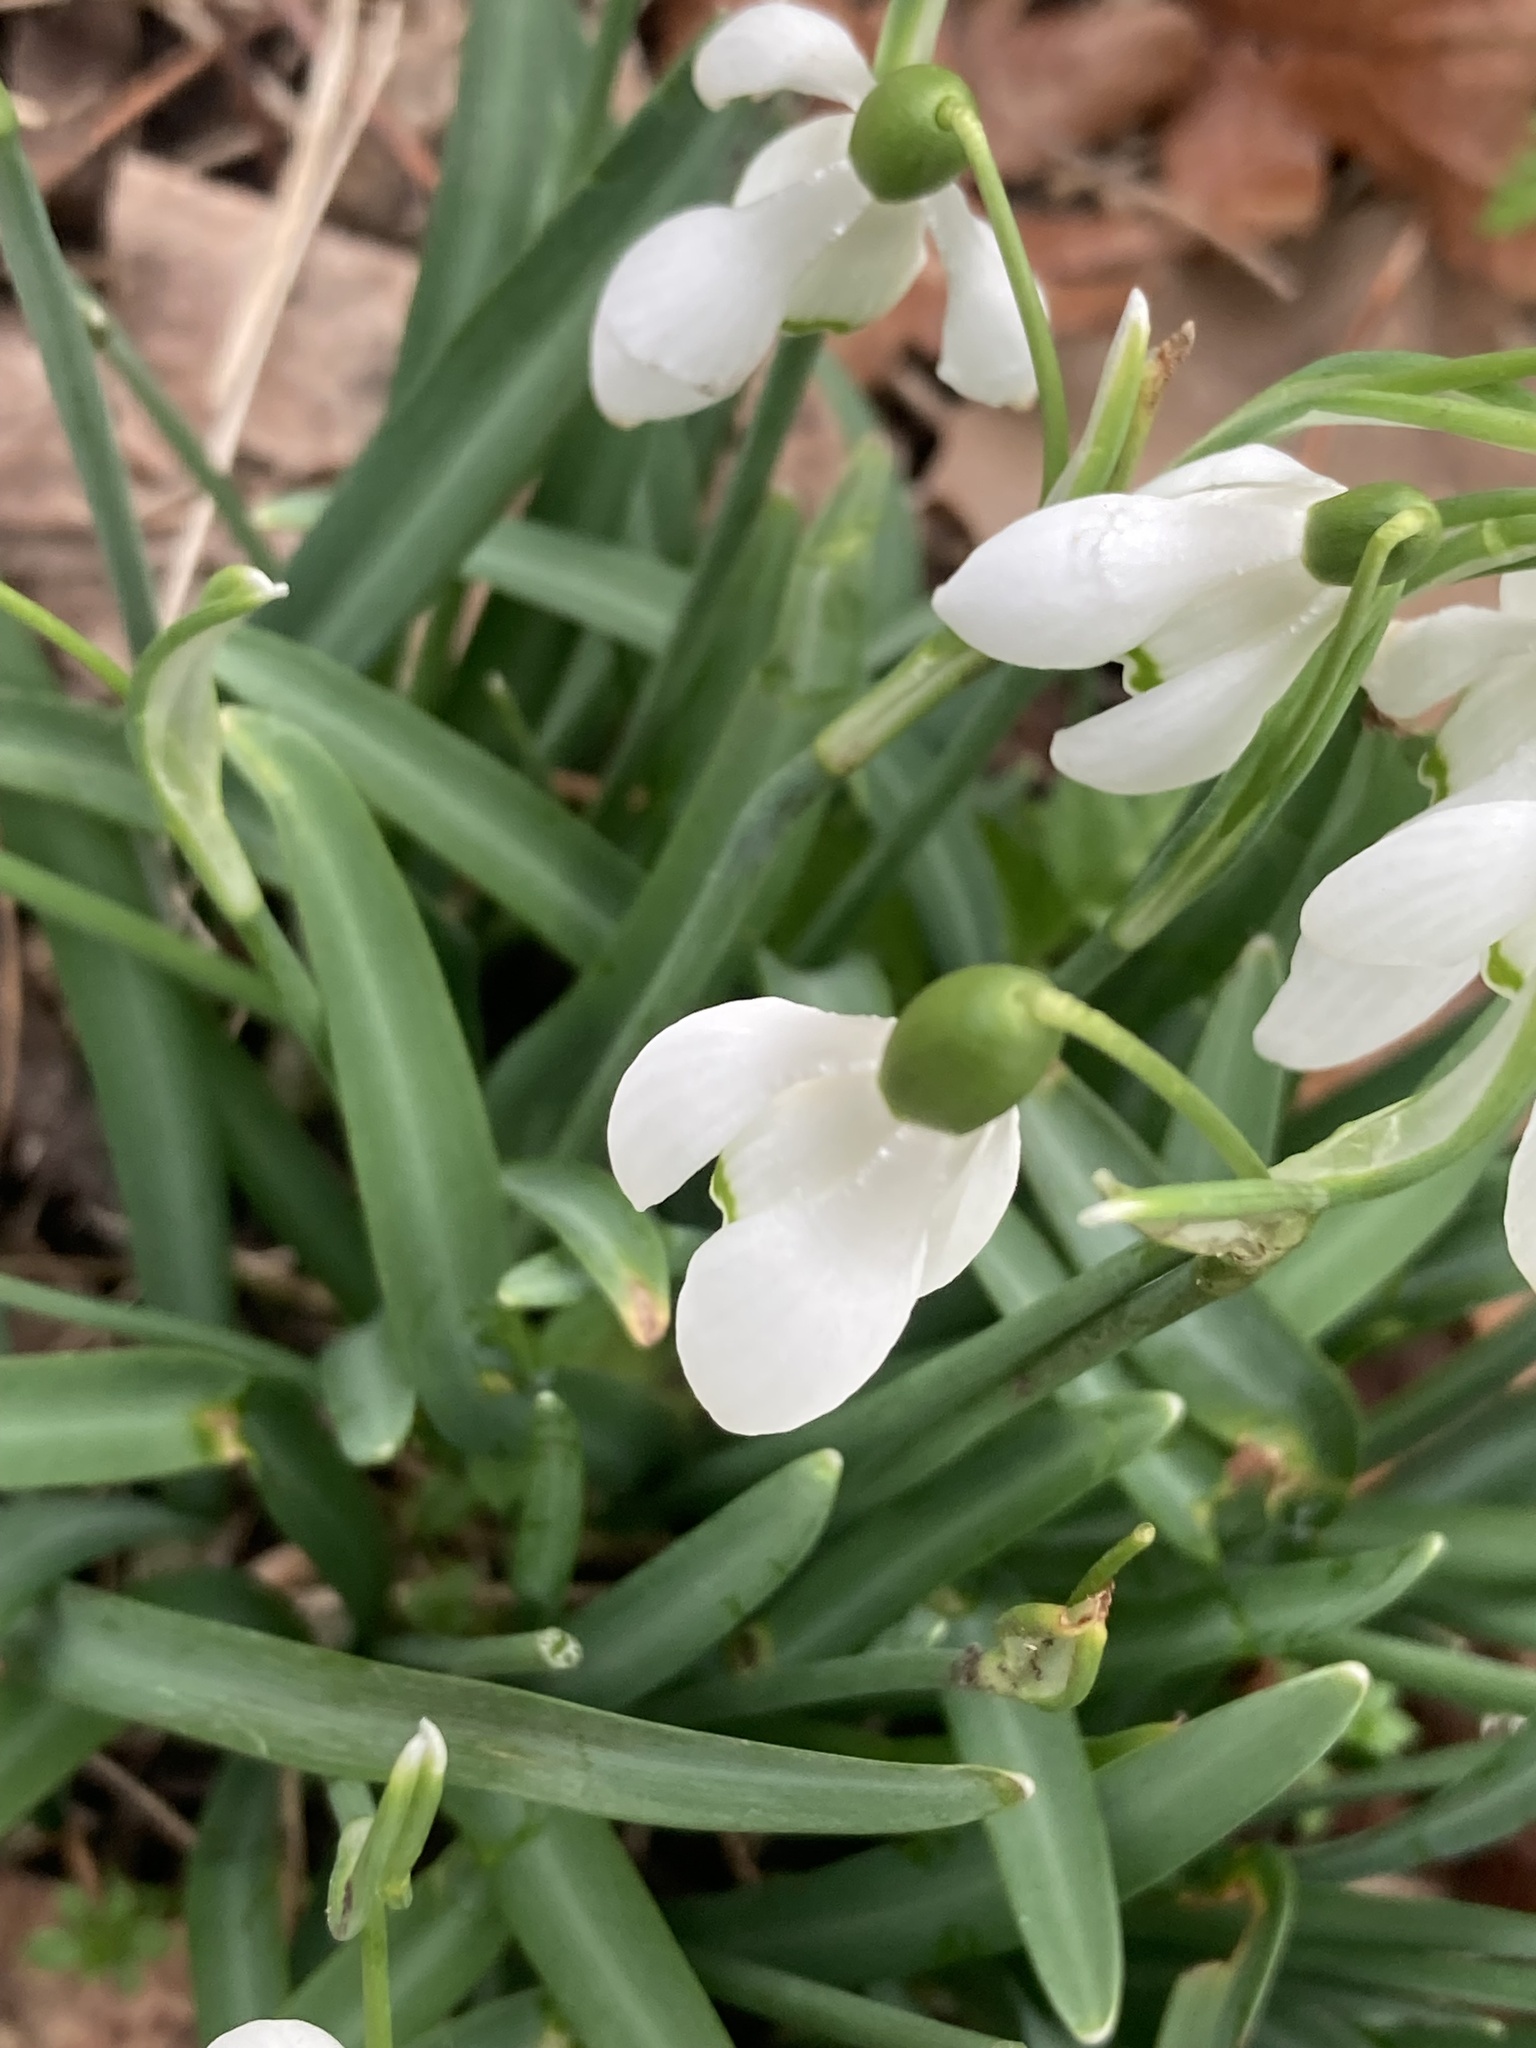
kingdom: Plantae
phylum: Tracheophyta
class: Liliopsida
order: Asparagales
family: Amaryllidaceae
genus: Galanthus
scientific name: Galanthus nivalis
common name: Snowdrop
